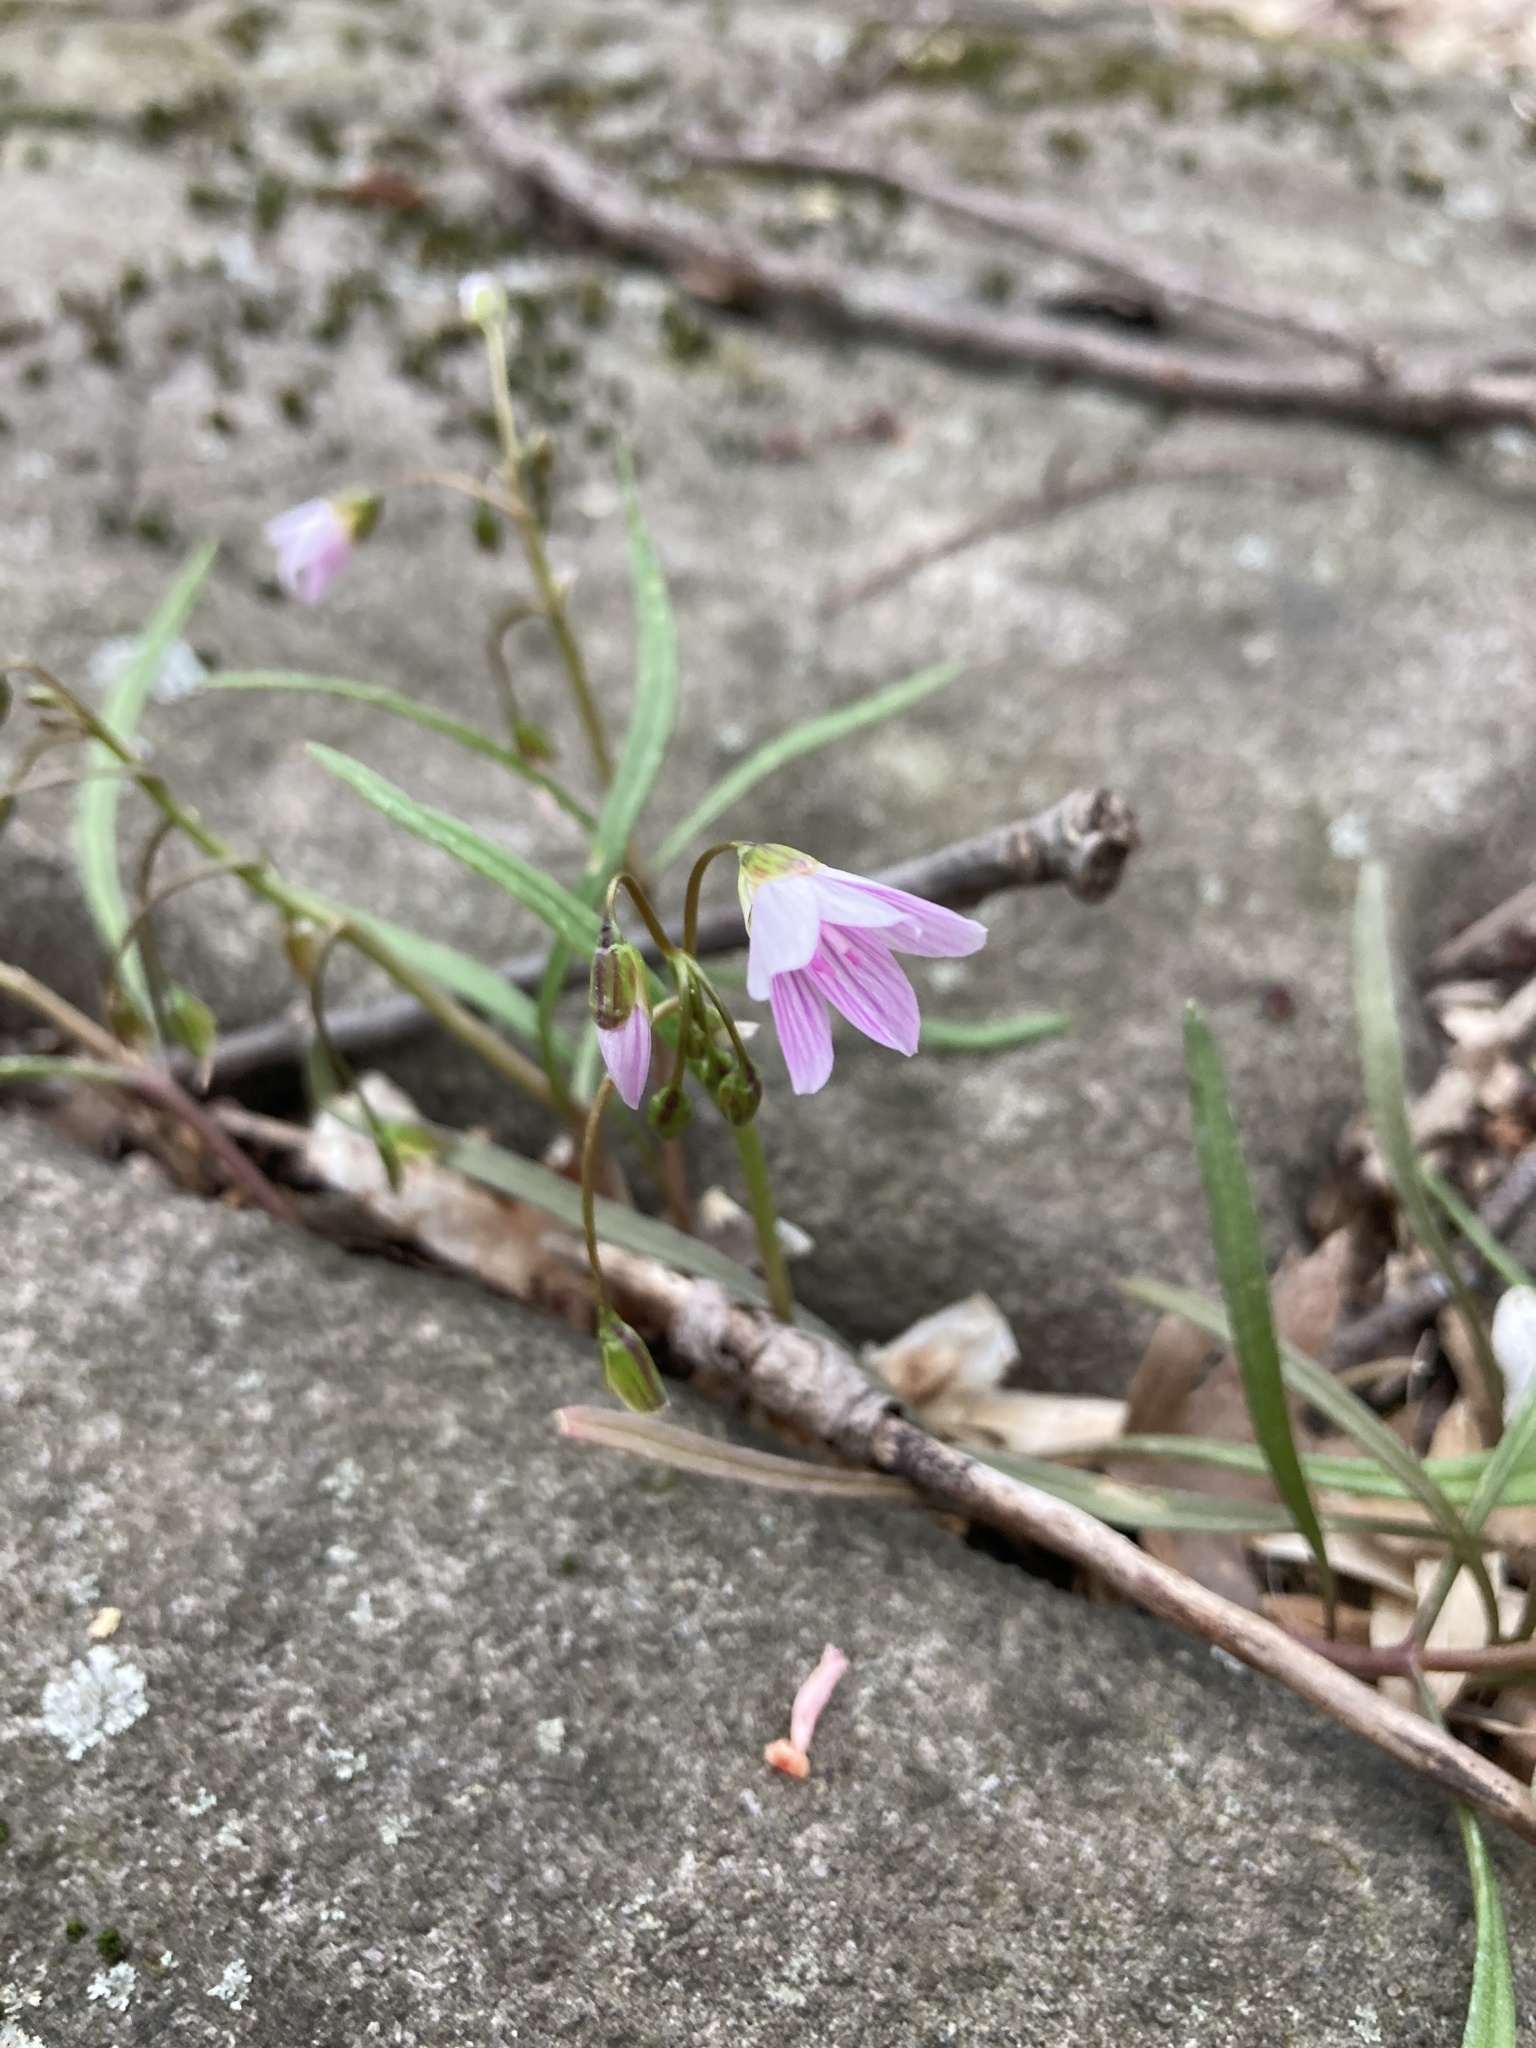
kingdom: Plantae
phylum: Tracheophyta
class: Magnoliopsida
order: Caryophyllales
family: Montiaceae
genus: Claytonia
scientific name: Claytonia virginica
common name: Virginia springbeauty
